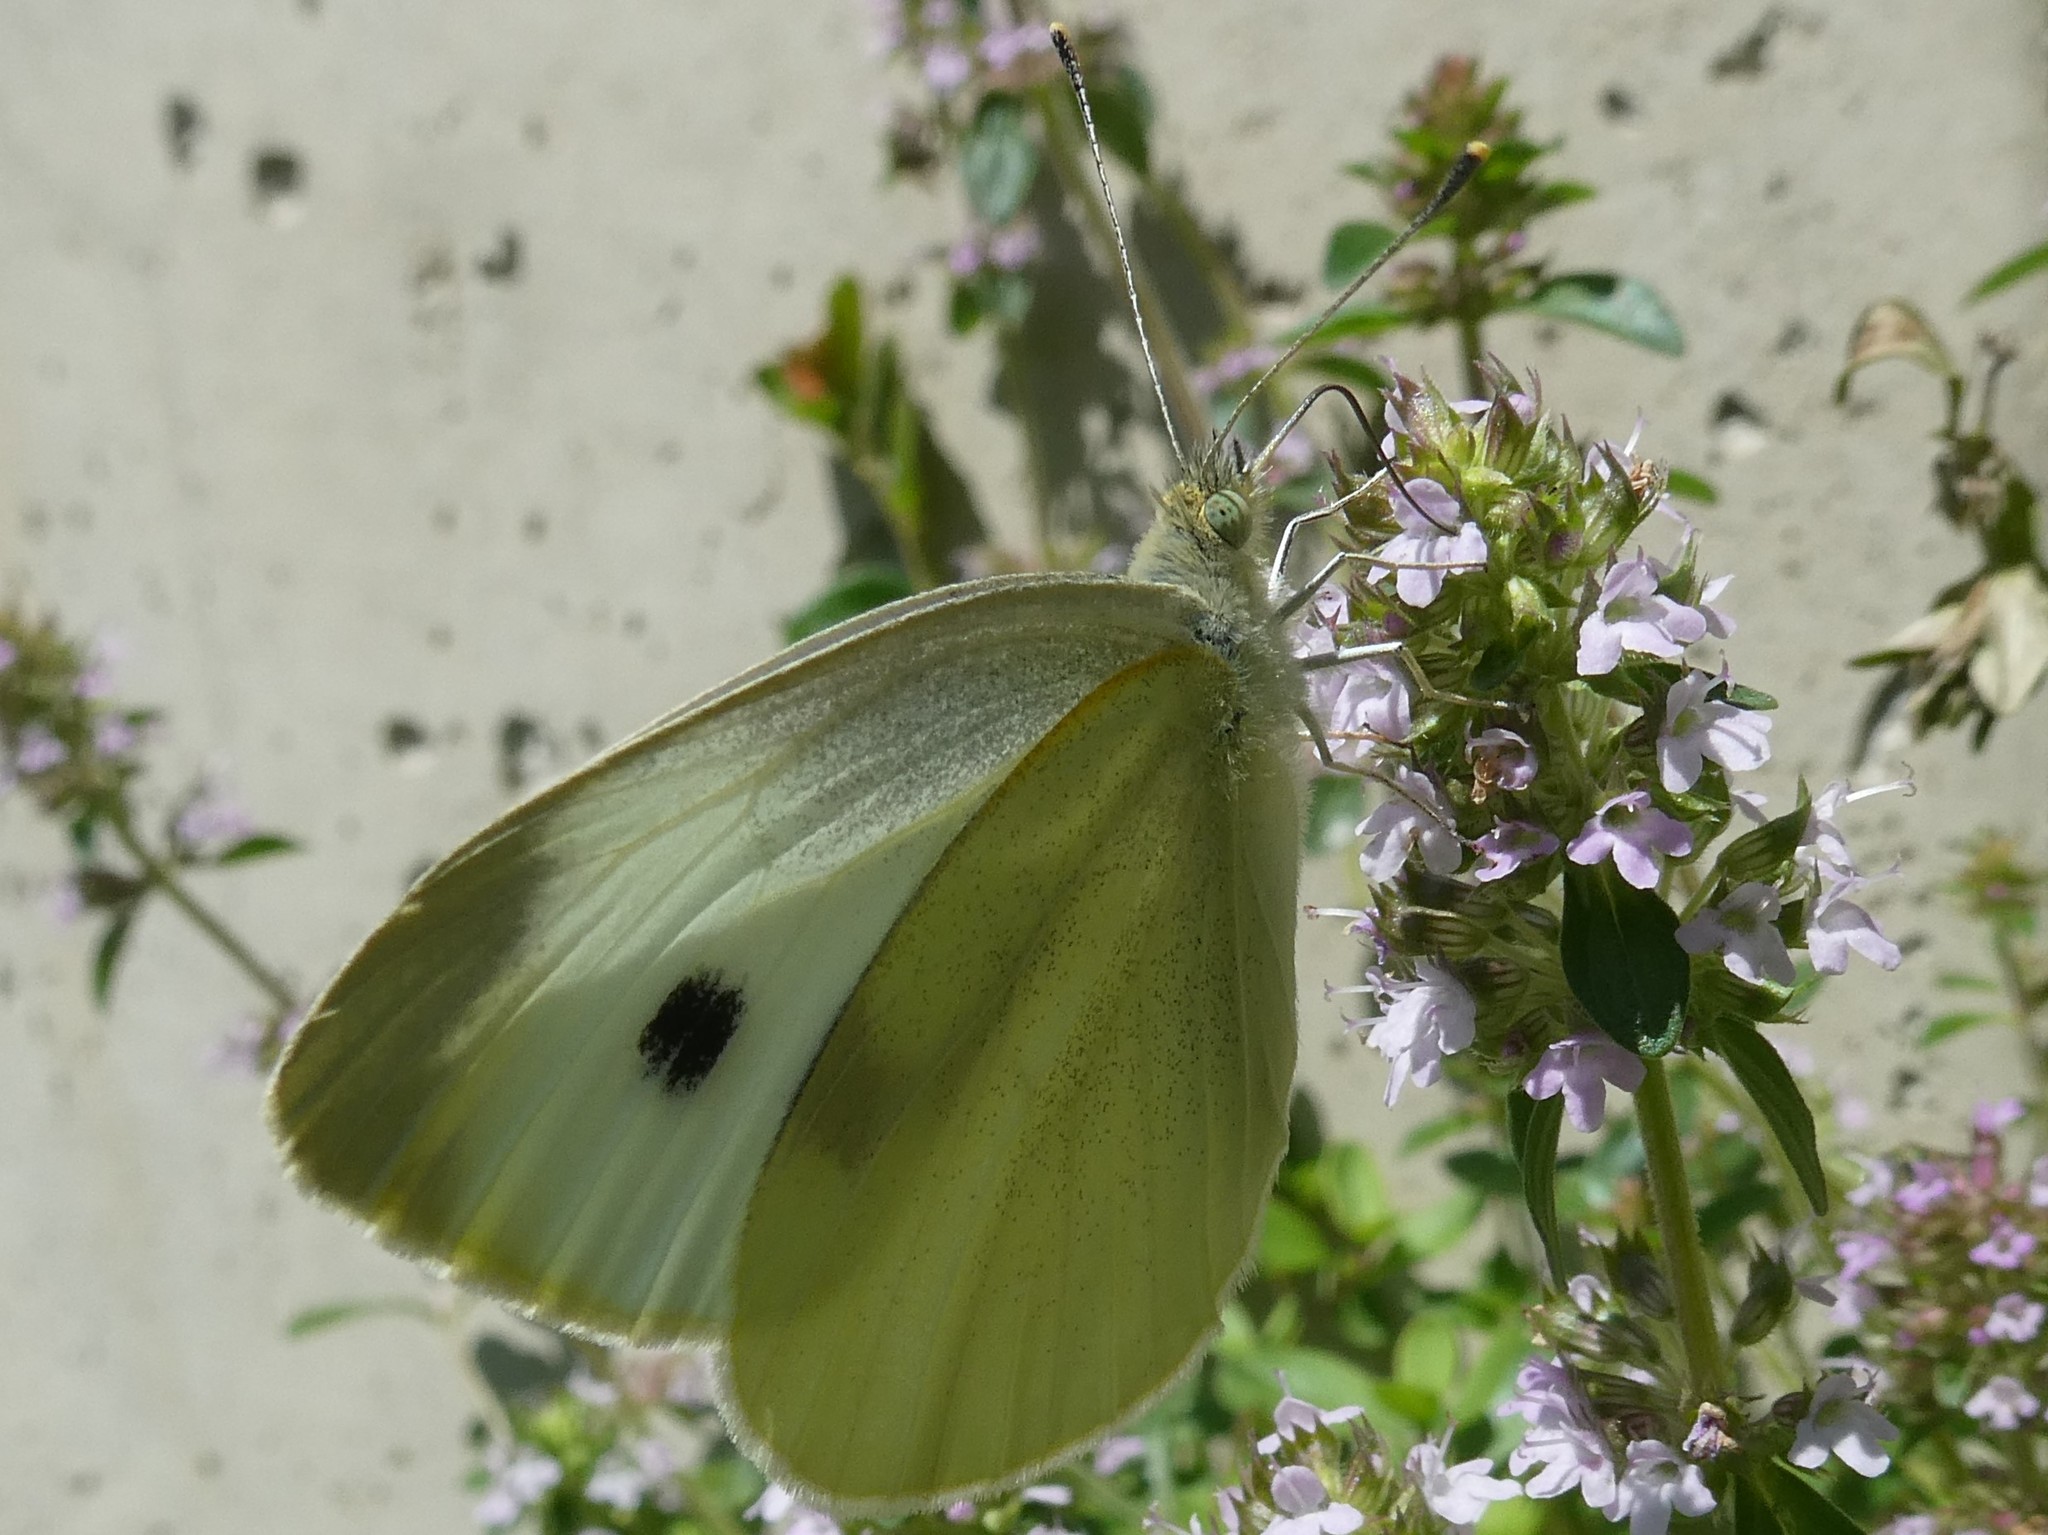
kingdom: Animalia
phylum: Arthropoda
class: Insecta
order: Lepidoptera
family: Pieridae
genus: Pieris
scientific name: Pieris rapae
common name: Small white
